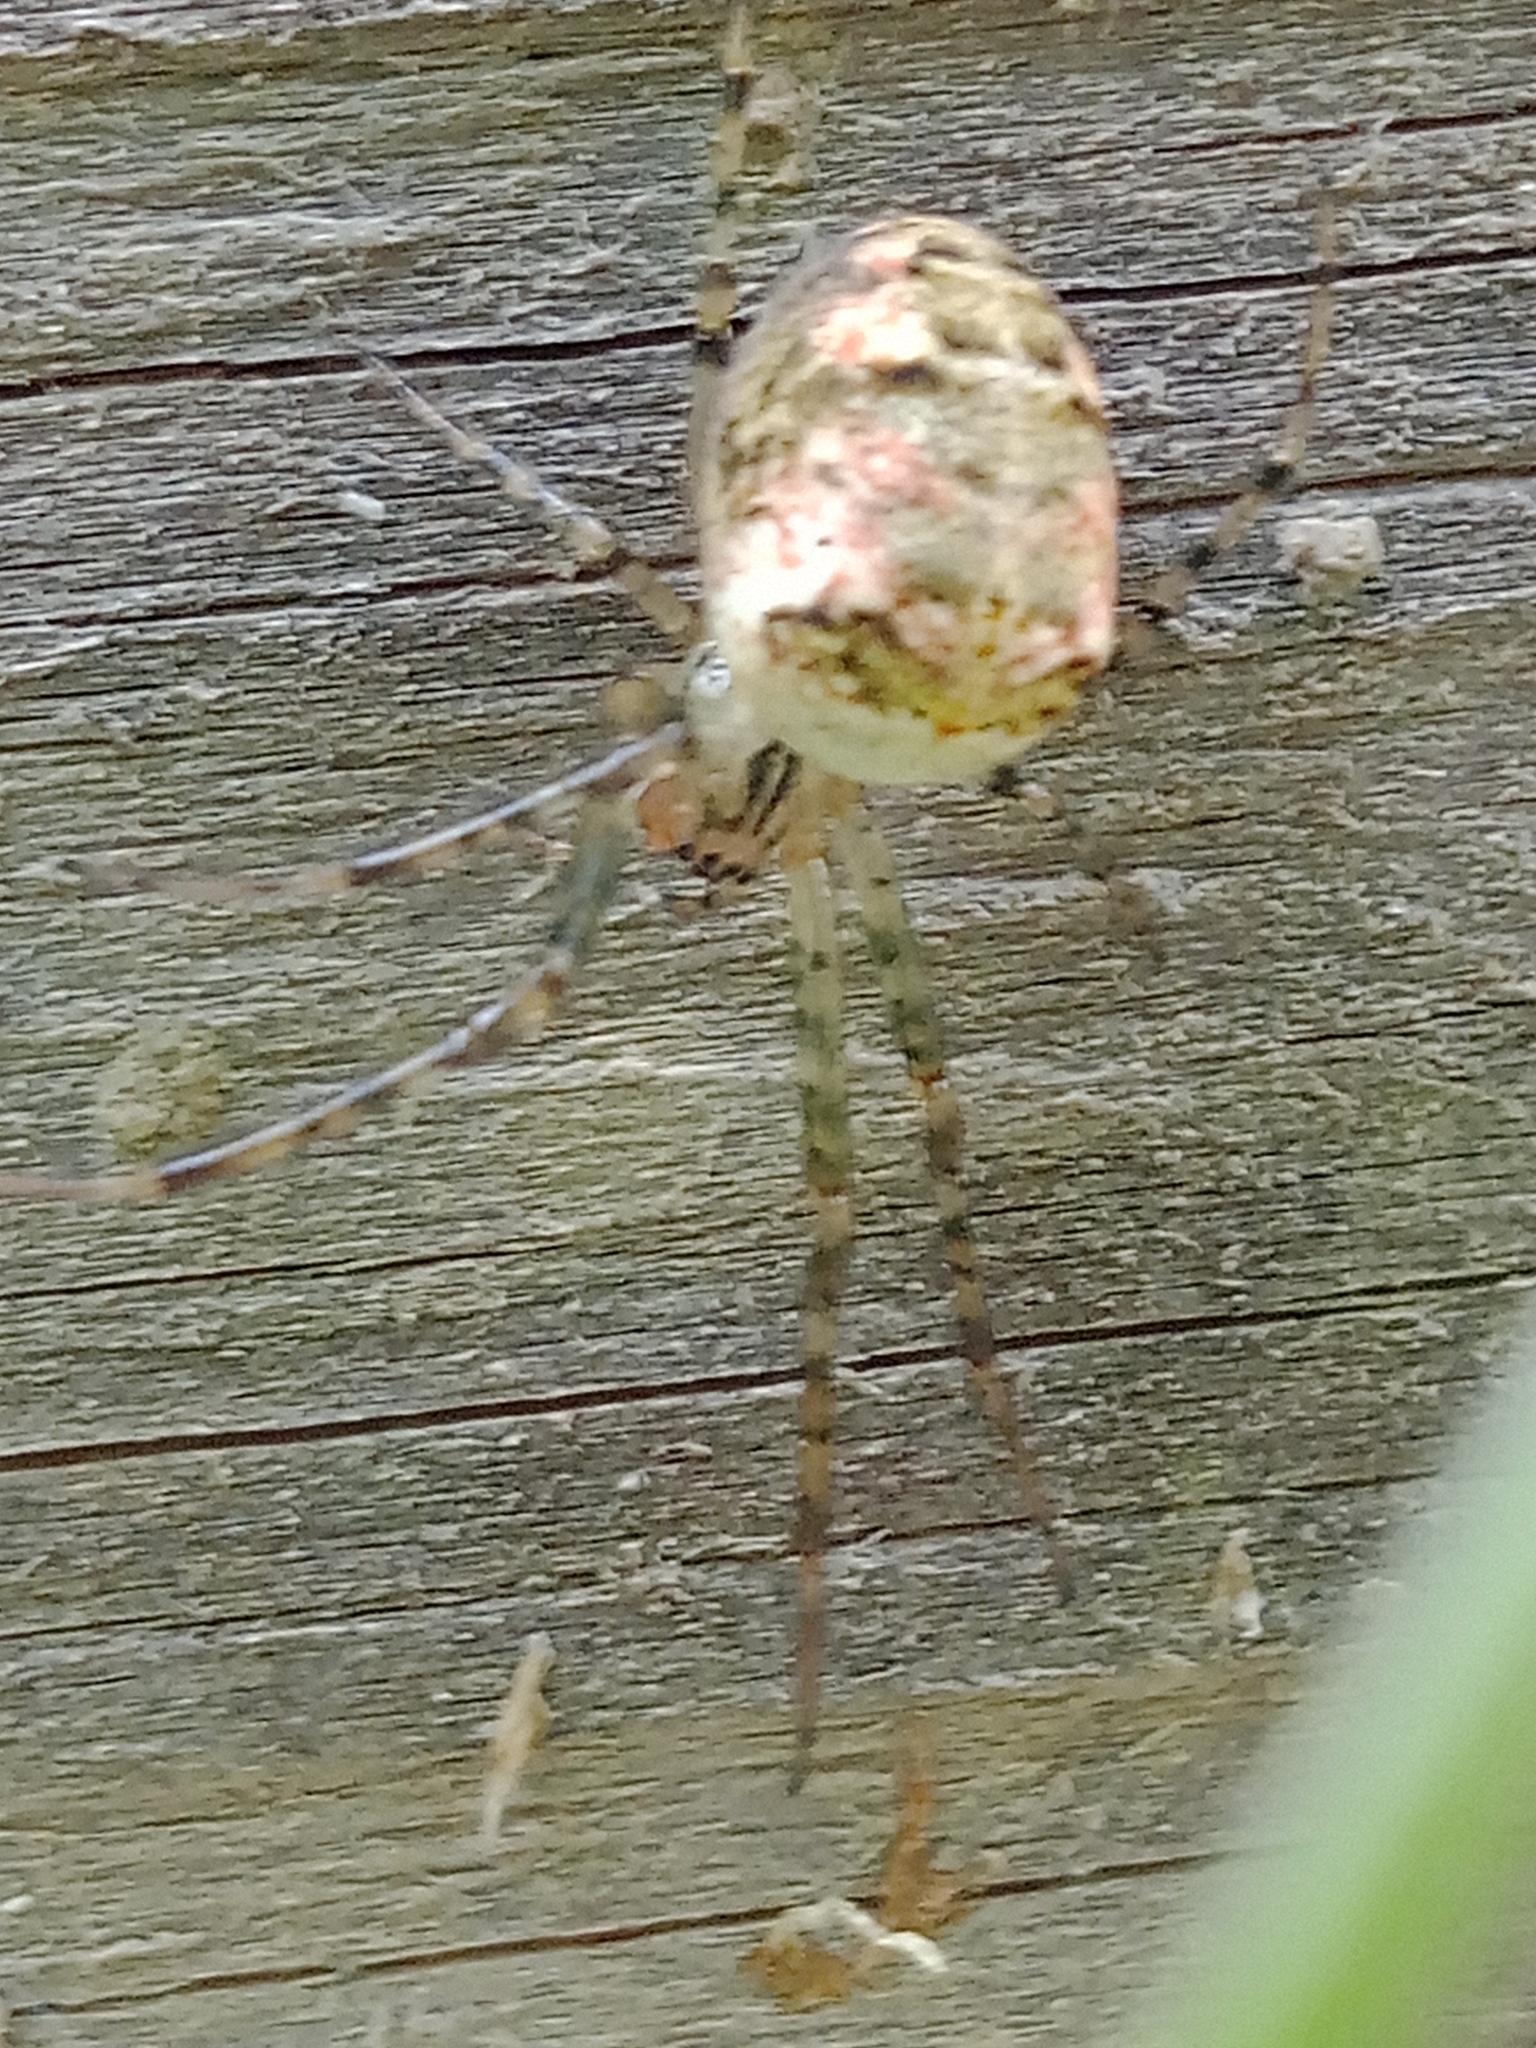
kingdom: Animalia
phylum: Arthropoda
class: Arachnida
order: Araneae
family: Tetragnathidae
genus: Metellina
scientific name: Metellina
